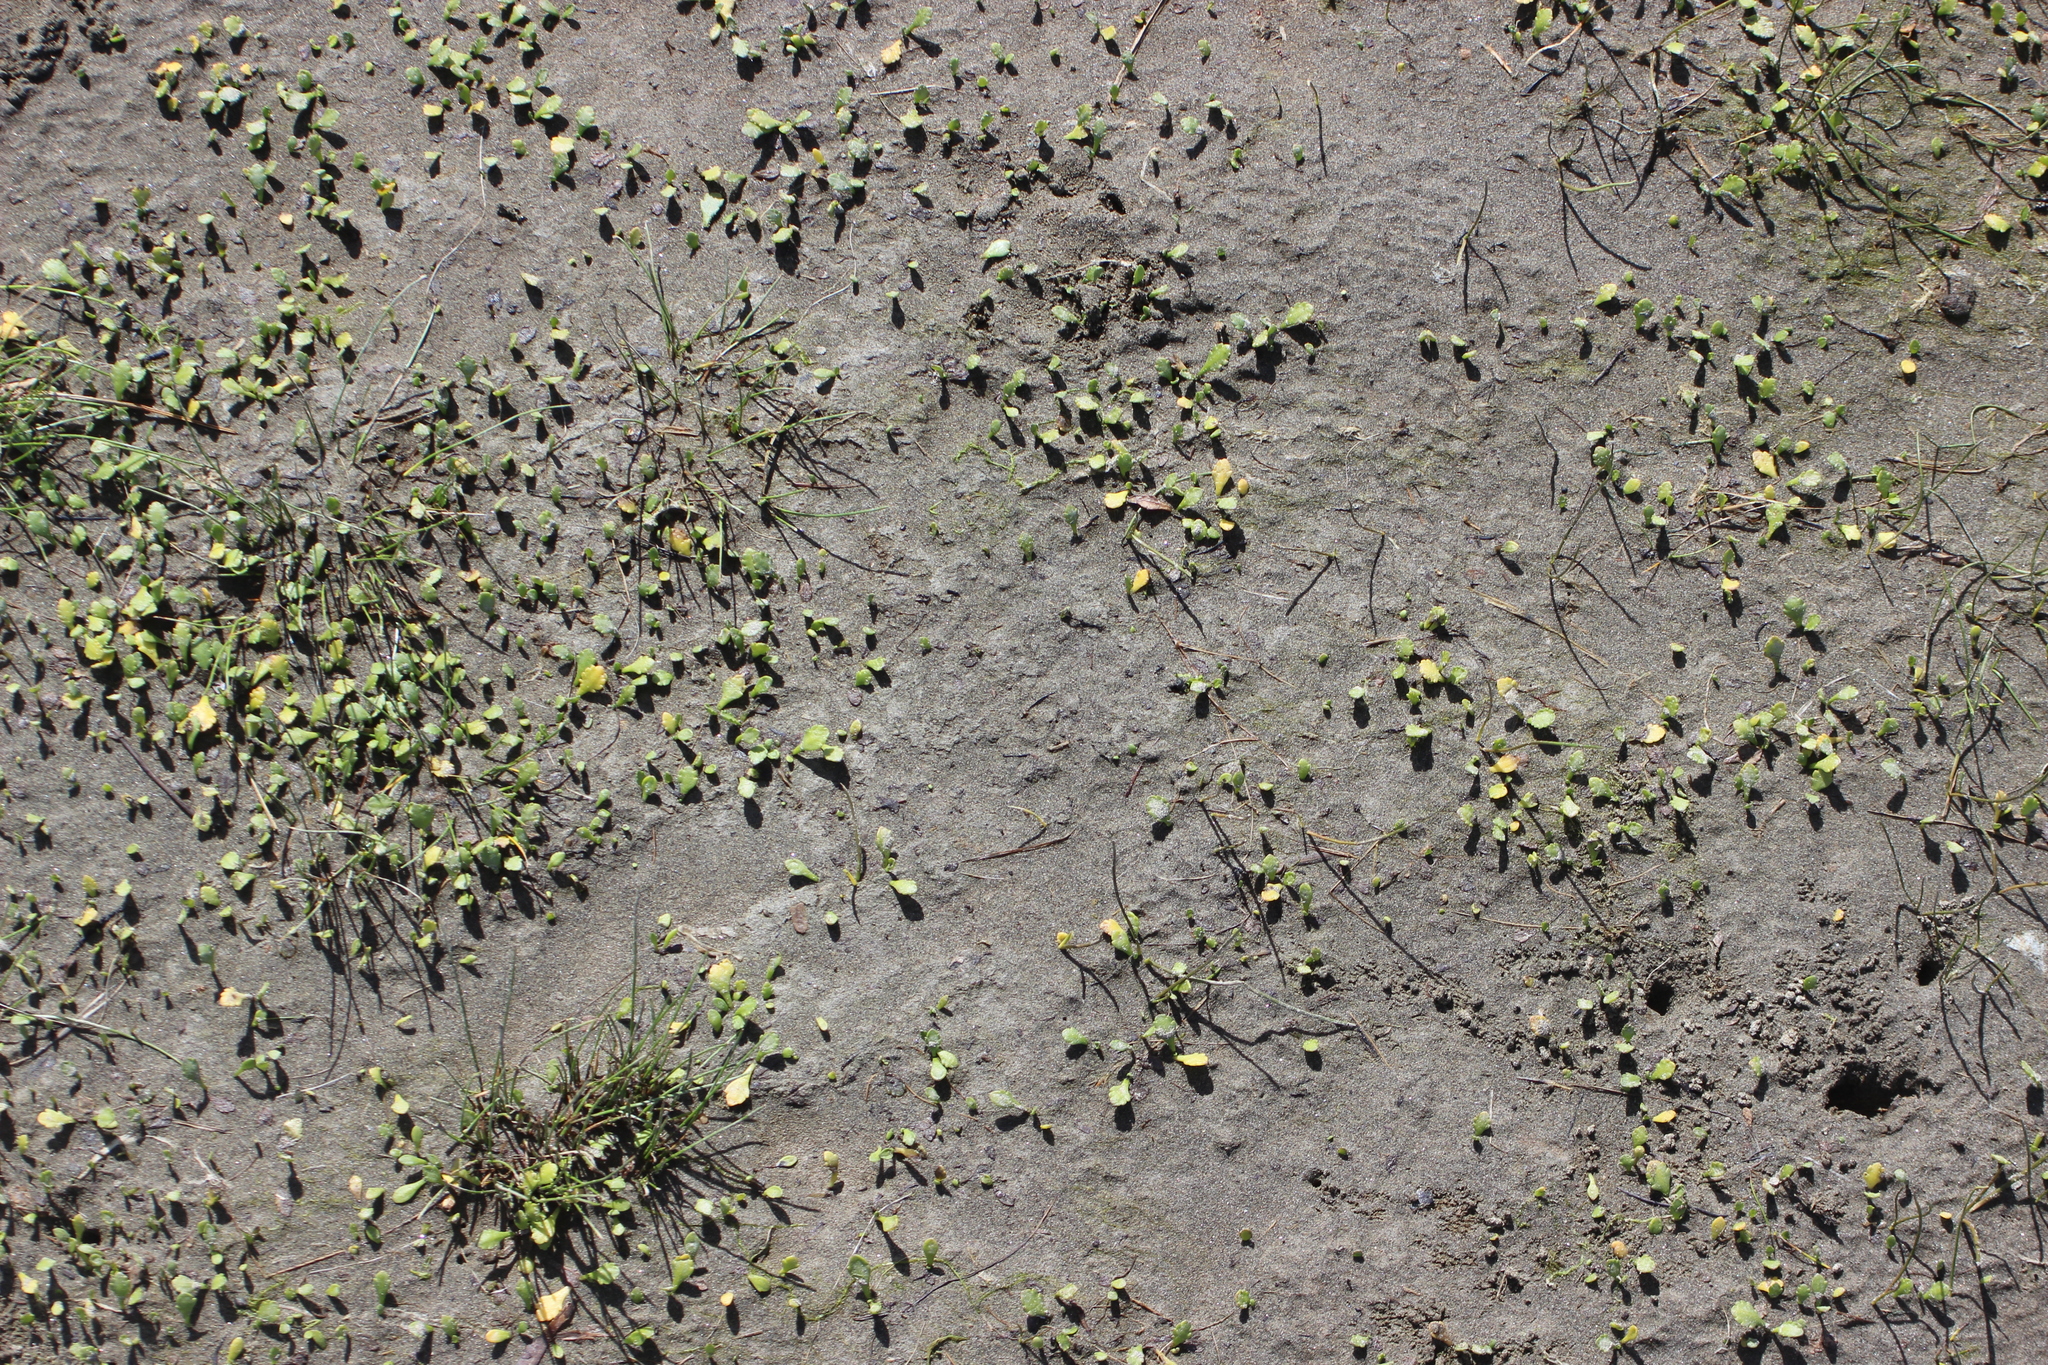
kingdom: Plantae
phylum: Tracheophyta
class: Magnoliopsida
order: Asterales
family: Asteraceae
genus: Leptinella
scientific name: Leptinella dioica
